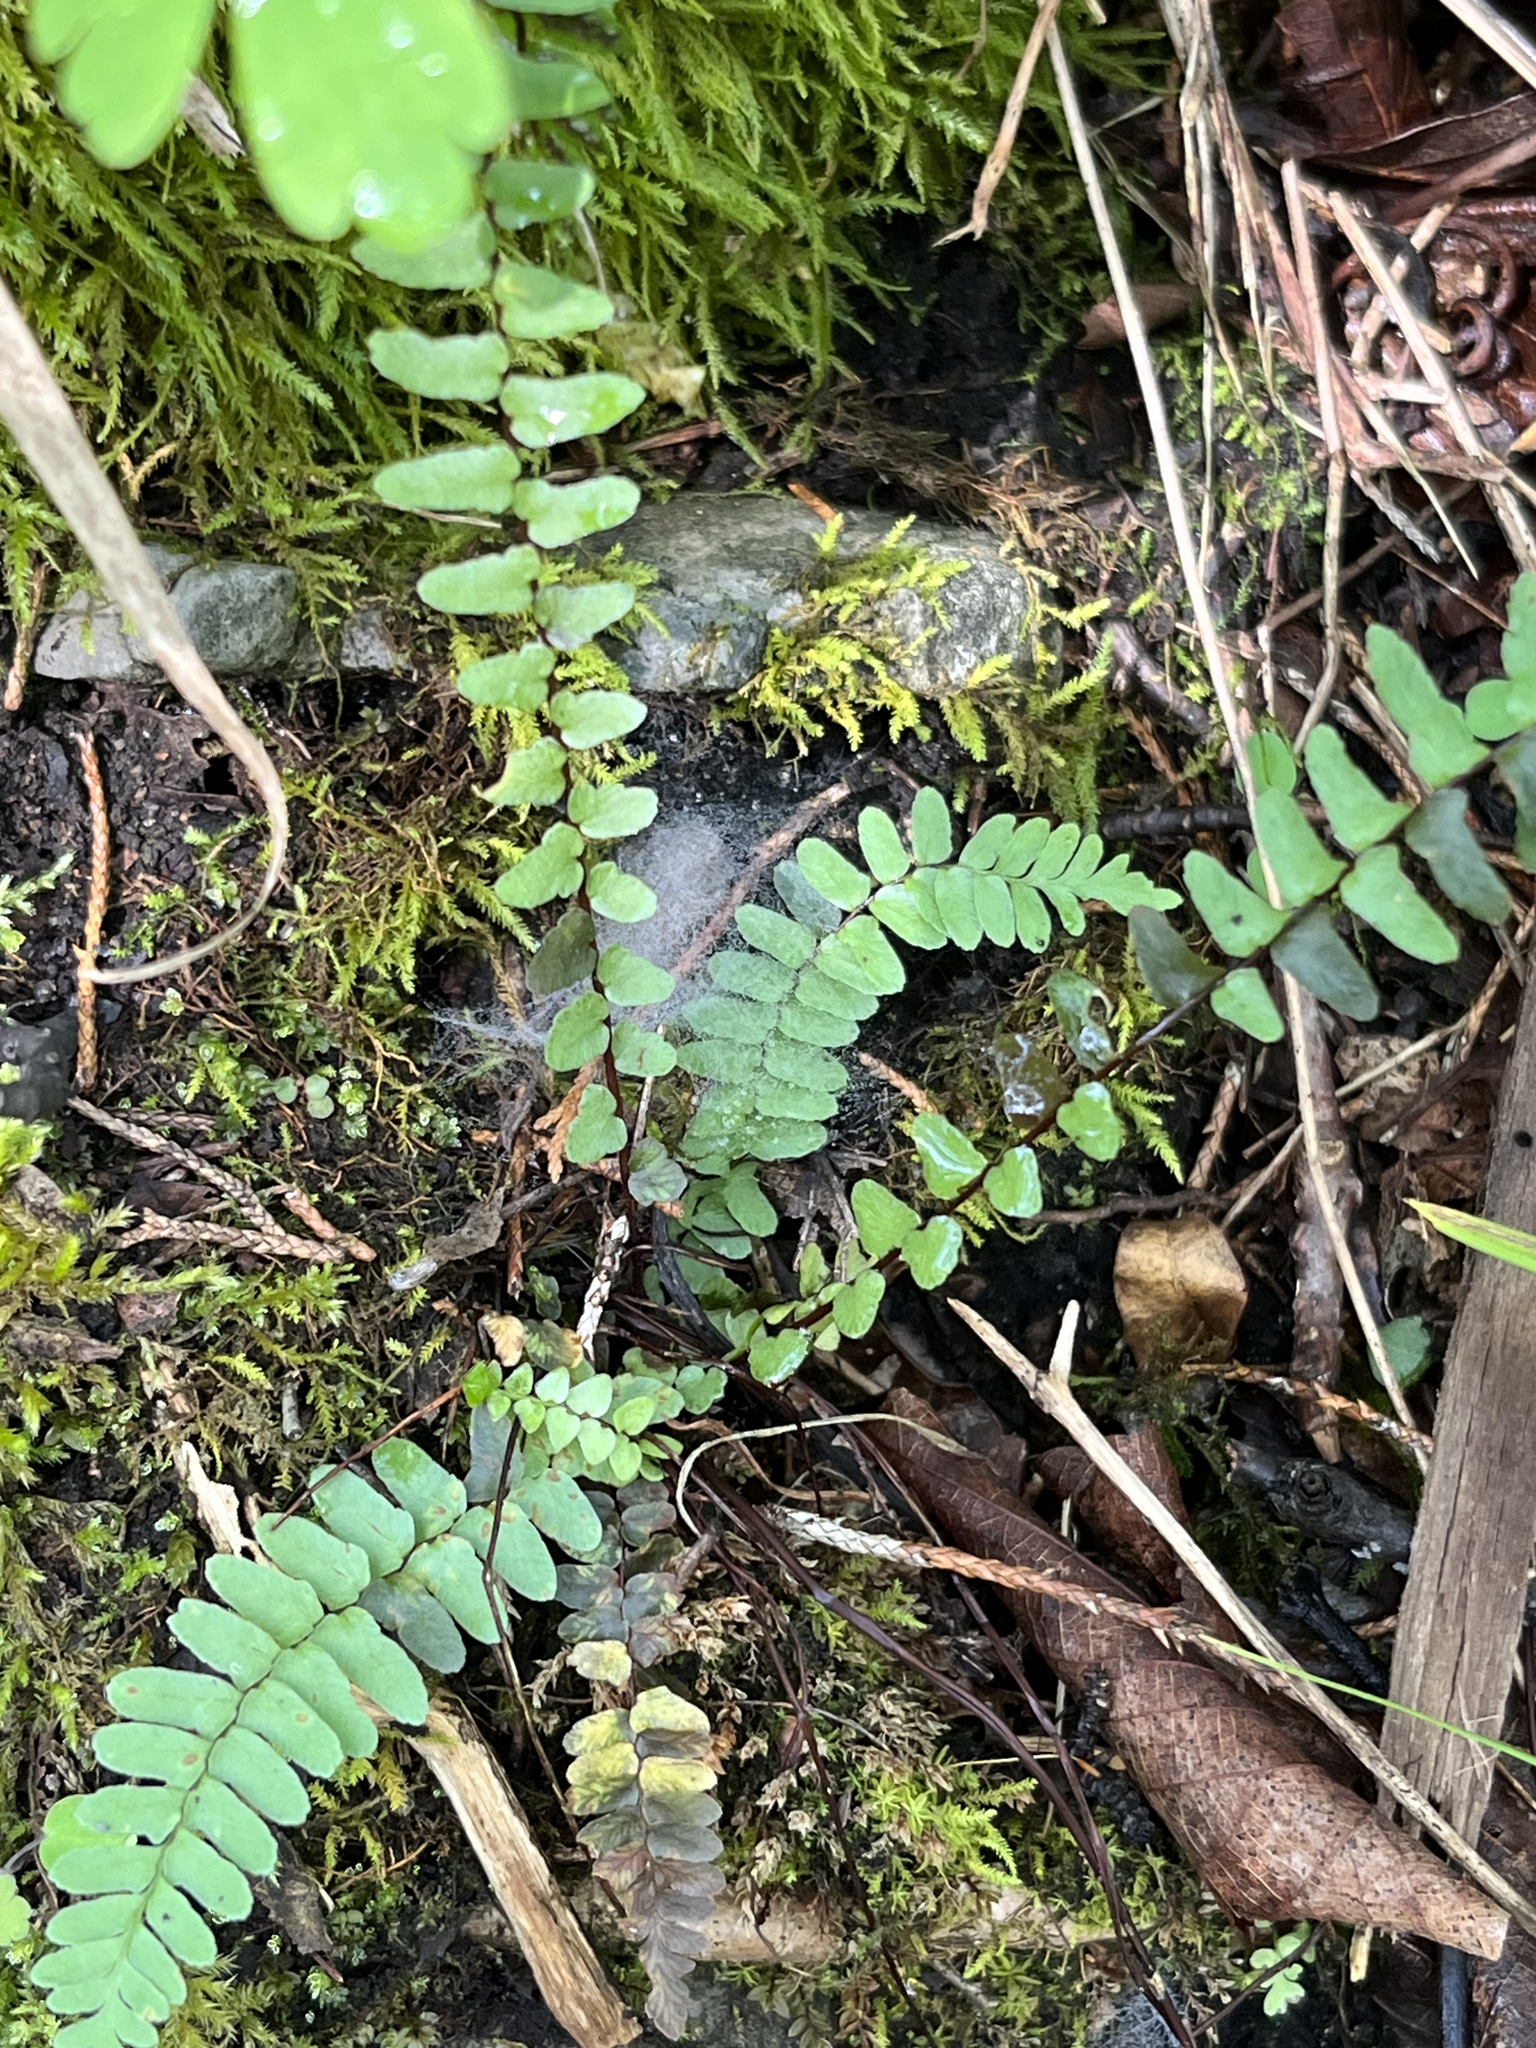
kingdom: Plantae
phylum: Tracheophyta
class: Polypodiopsida
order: Polypodiales
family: Aspleniaceae
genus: Asplenium
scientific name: Asplenium platyneuron
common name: Ebony spleenwort
